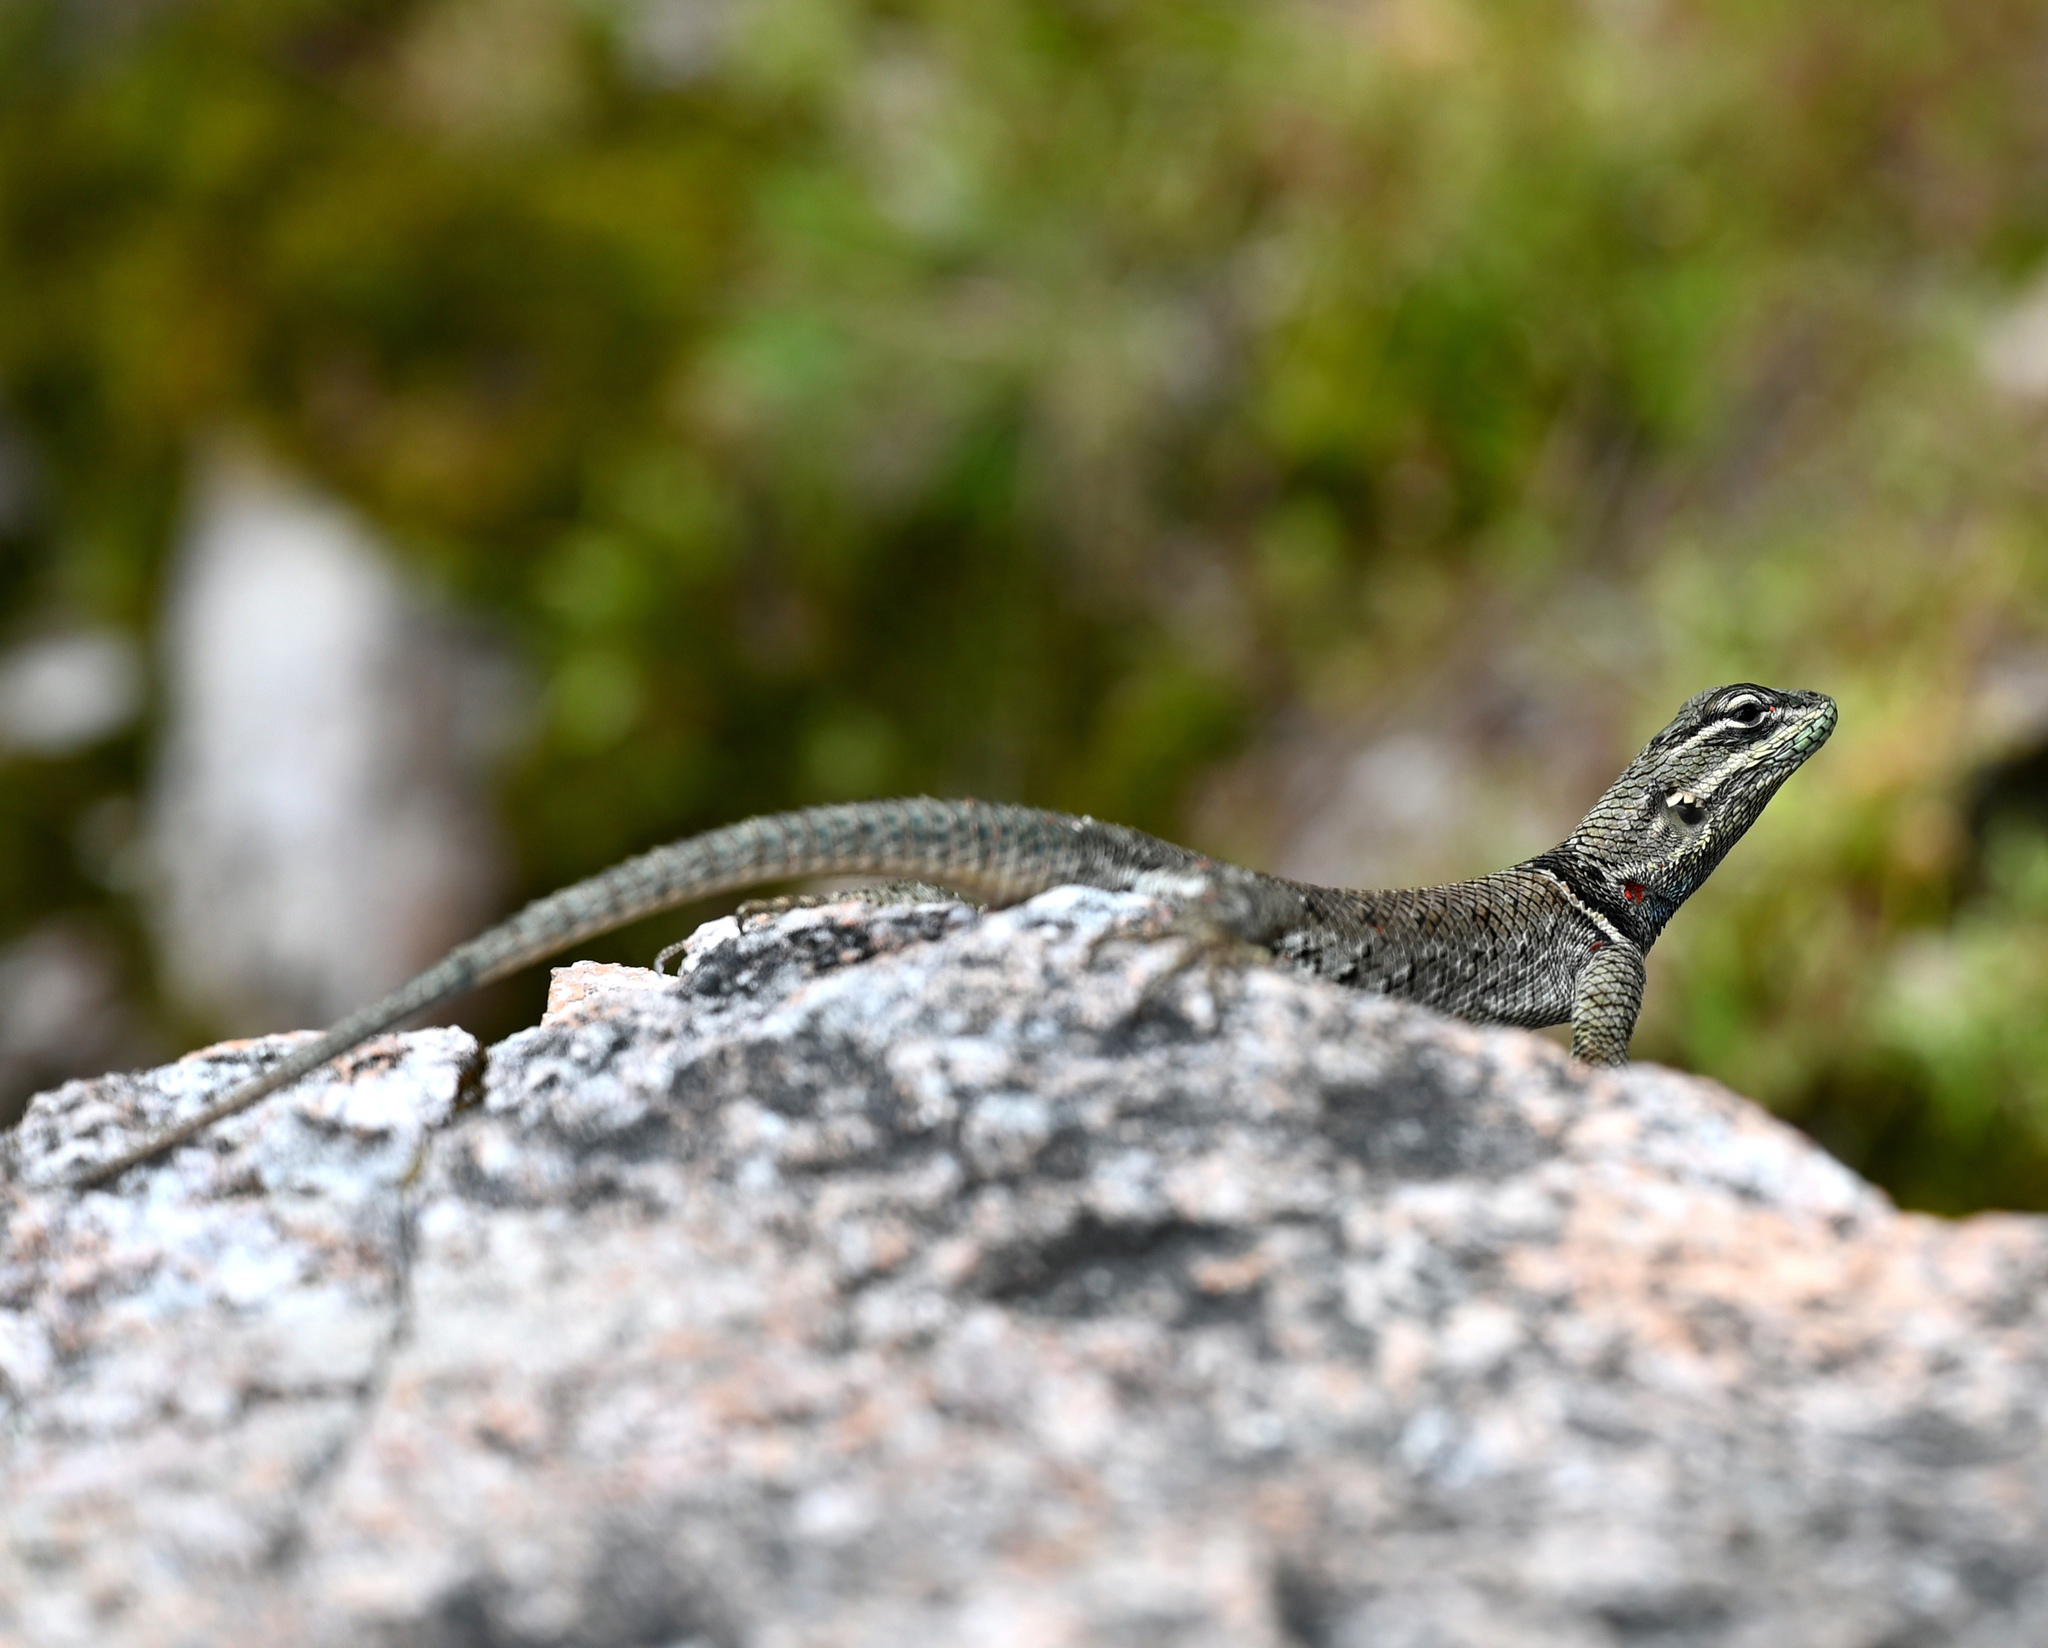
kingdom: Animalia
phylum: Chordata
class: Squamata
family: Phrynosomatidae
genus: Sceloporus
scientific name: Sceloporus jarrovii
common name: Yarrow's spiny lizard
